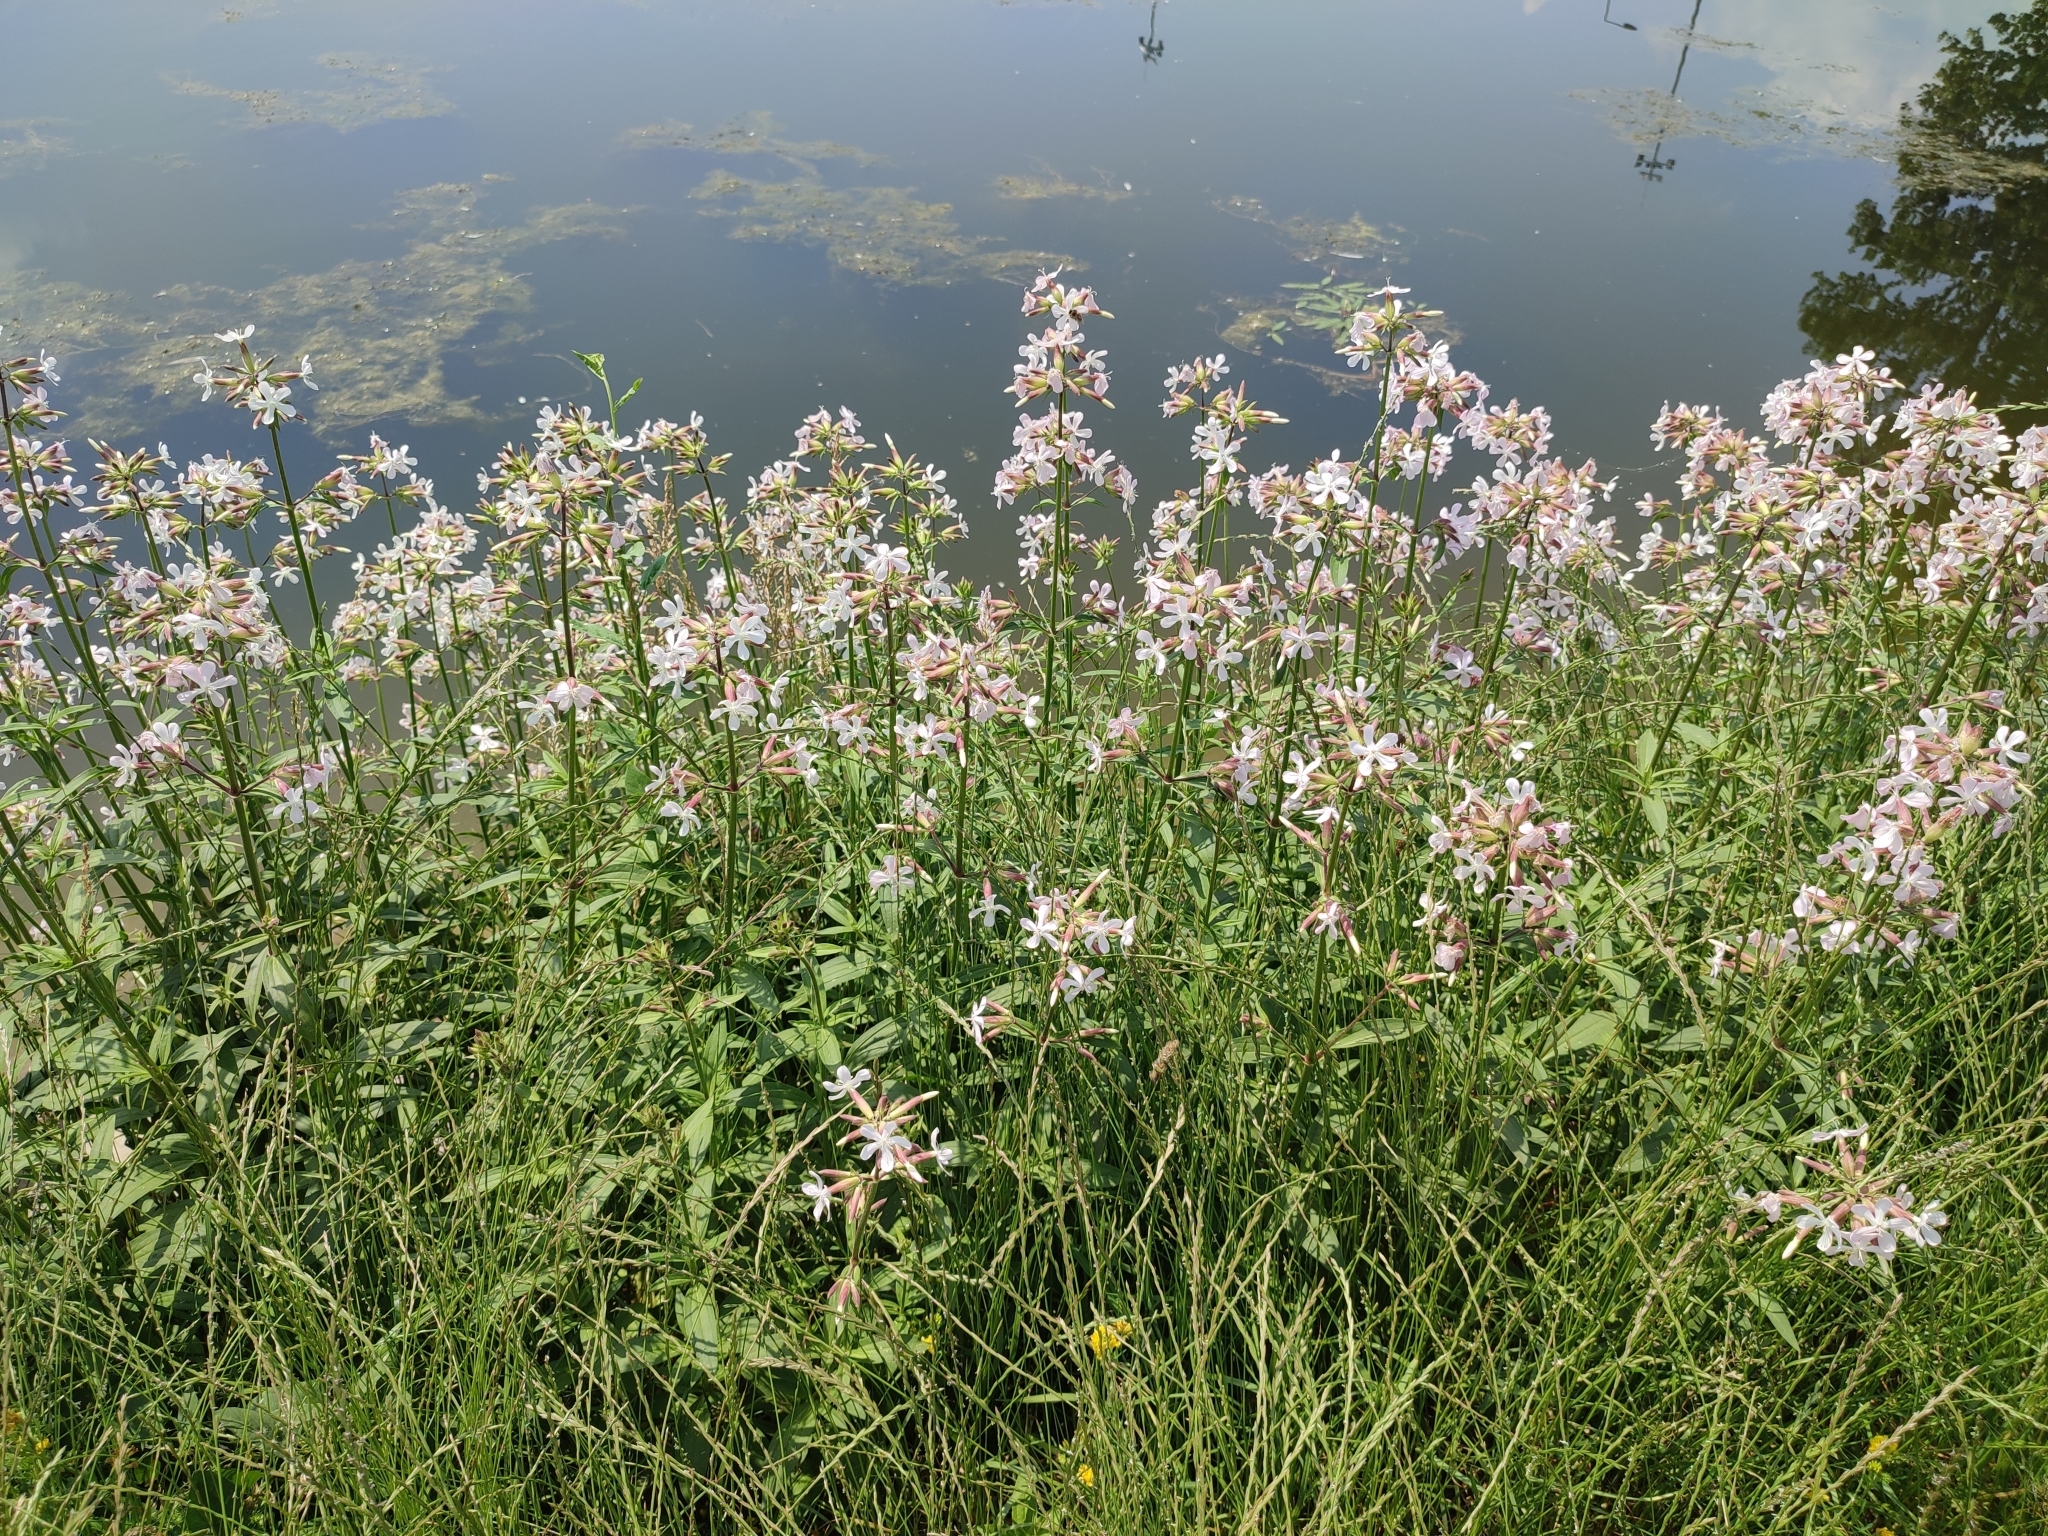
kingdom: Plantae
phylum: Tracheophyta
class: Magnoliopsida
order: Caryophyllales
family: Caryophyllaceae
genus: Saponaria
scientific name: Saponaria officinalis
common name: Soapwort
